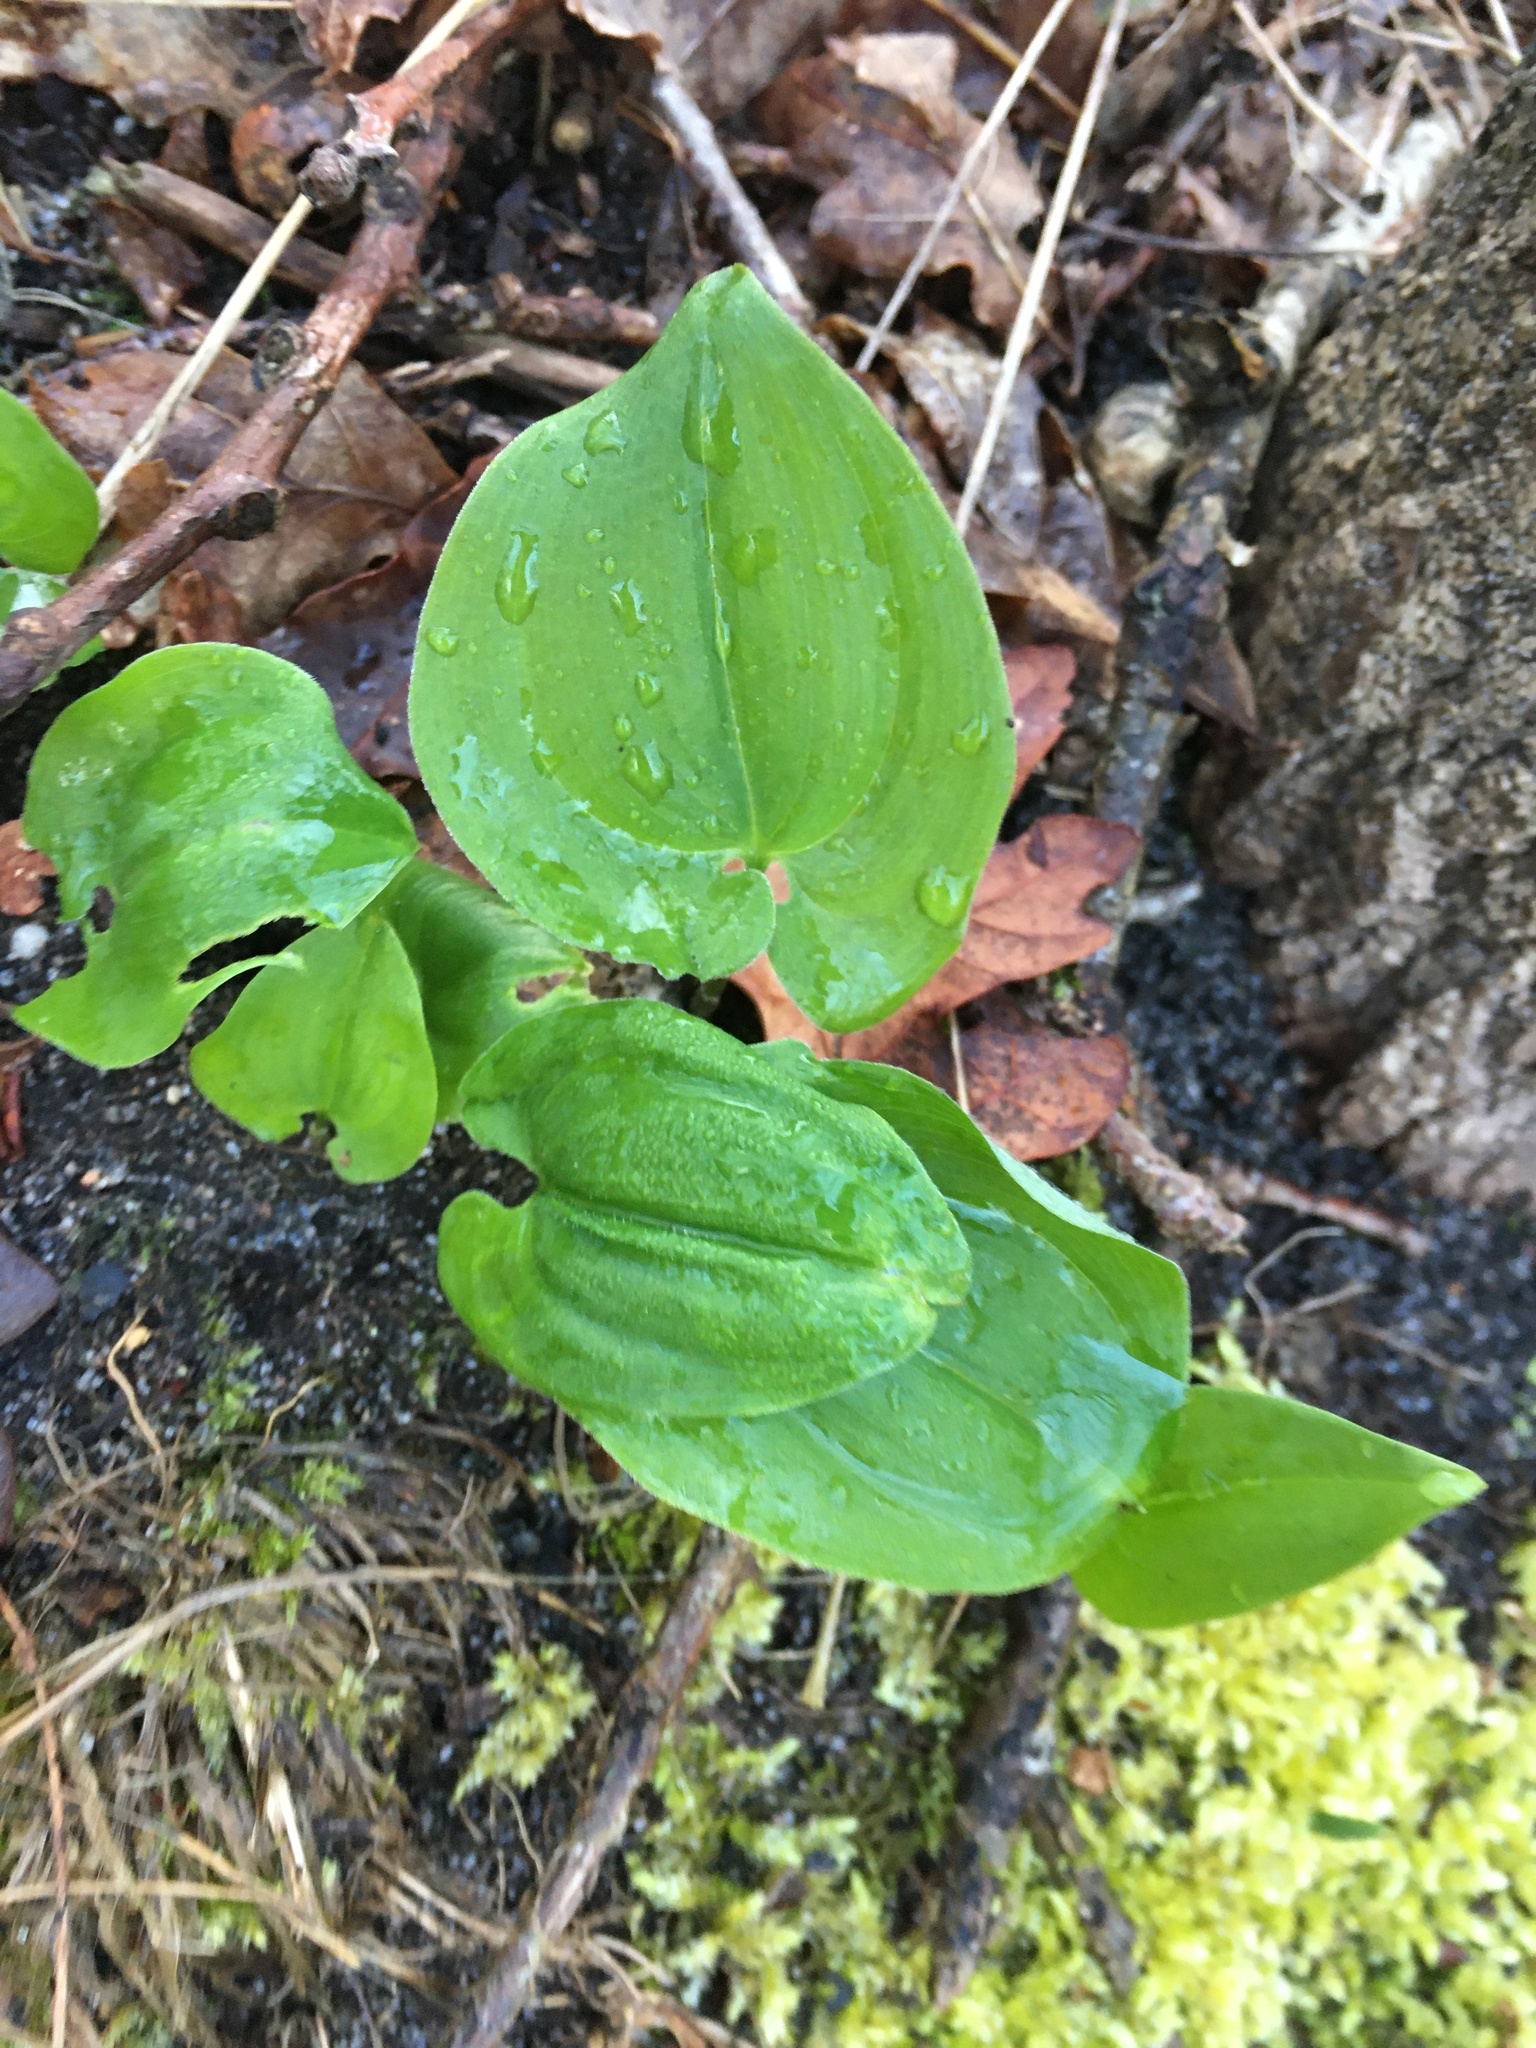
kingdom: Plantae
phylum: Tracheophyta
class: Liliopsida
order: Asparagales
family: Asparagaceae
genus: Maianthemum
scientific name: Maianthemum bifolium
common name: May lily
